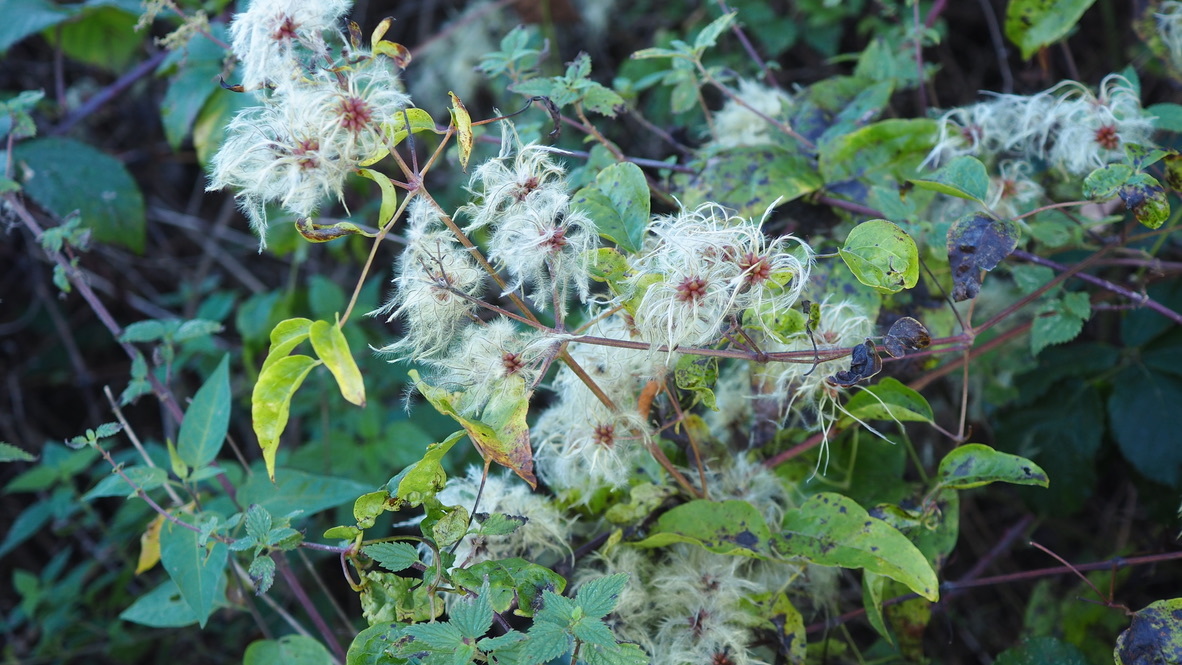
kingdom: Plantae
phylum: Tracheophyta
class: Magnoliopsida
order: Ranunculales
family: Ranunculaceae
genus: Clematis
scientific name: Clematis vitalba
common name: Evergreen clematis
